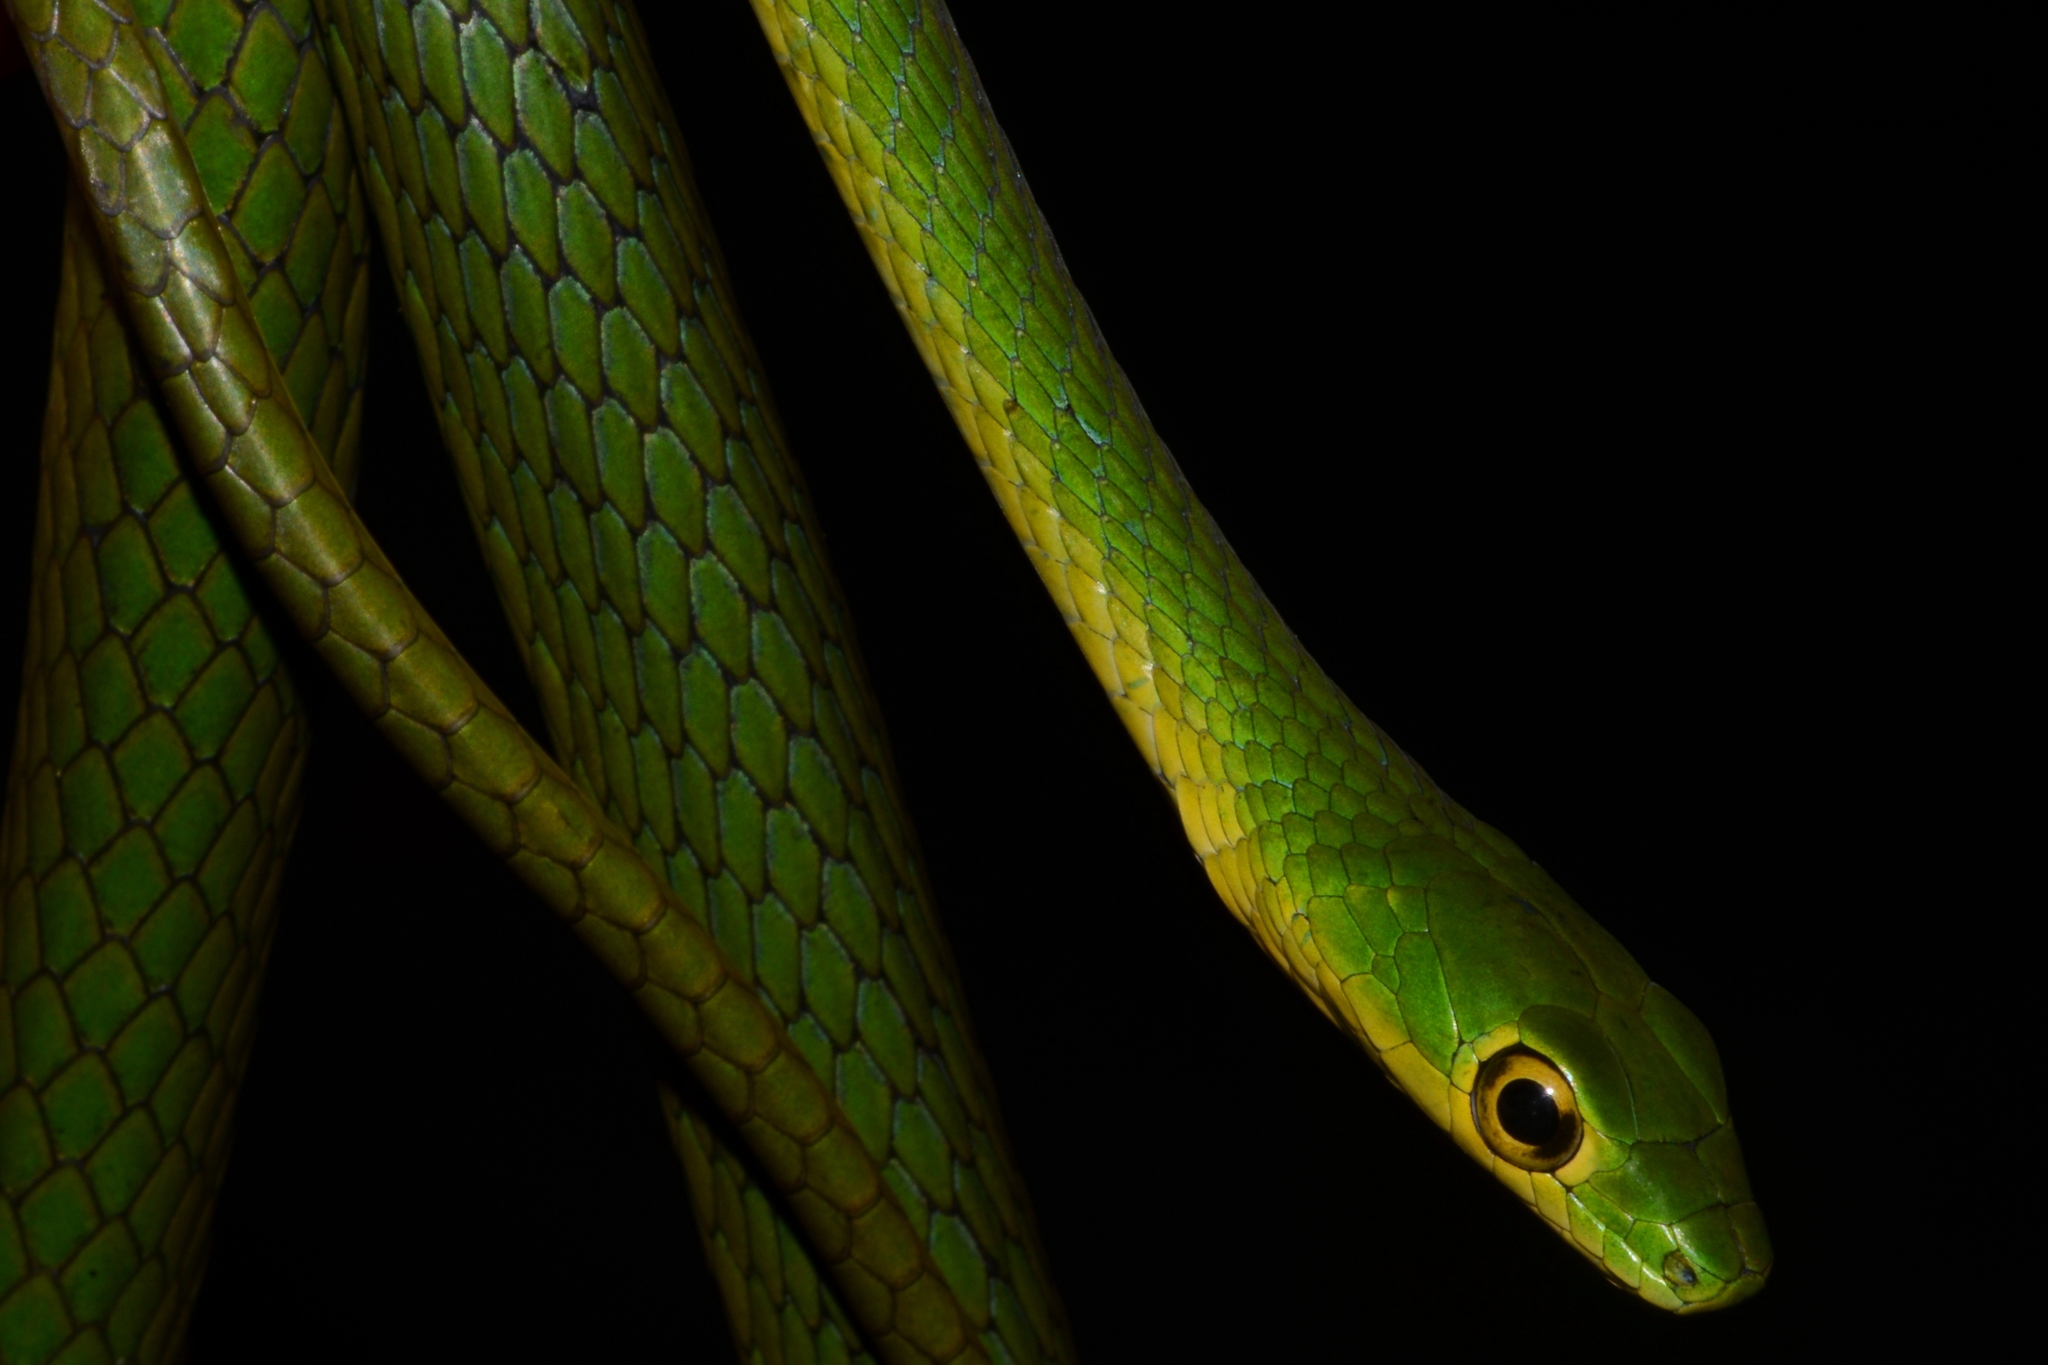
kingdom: Animalia
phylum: Chordata
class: Squamata
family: Colubridae
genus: Philothamnus
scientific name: Philothamnus nitidus
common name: Green bush snake
